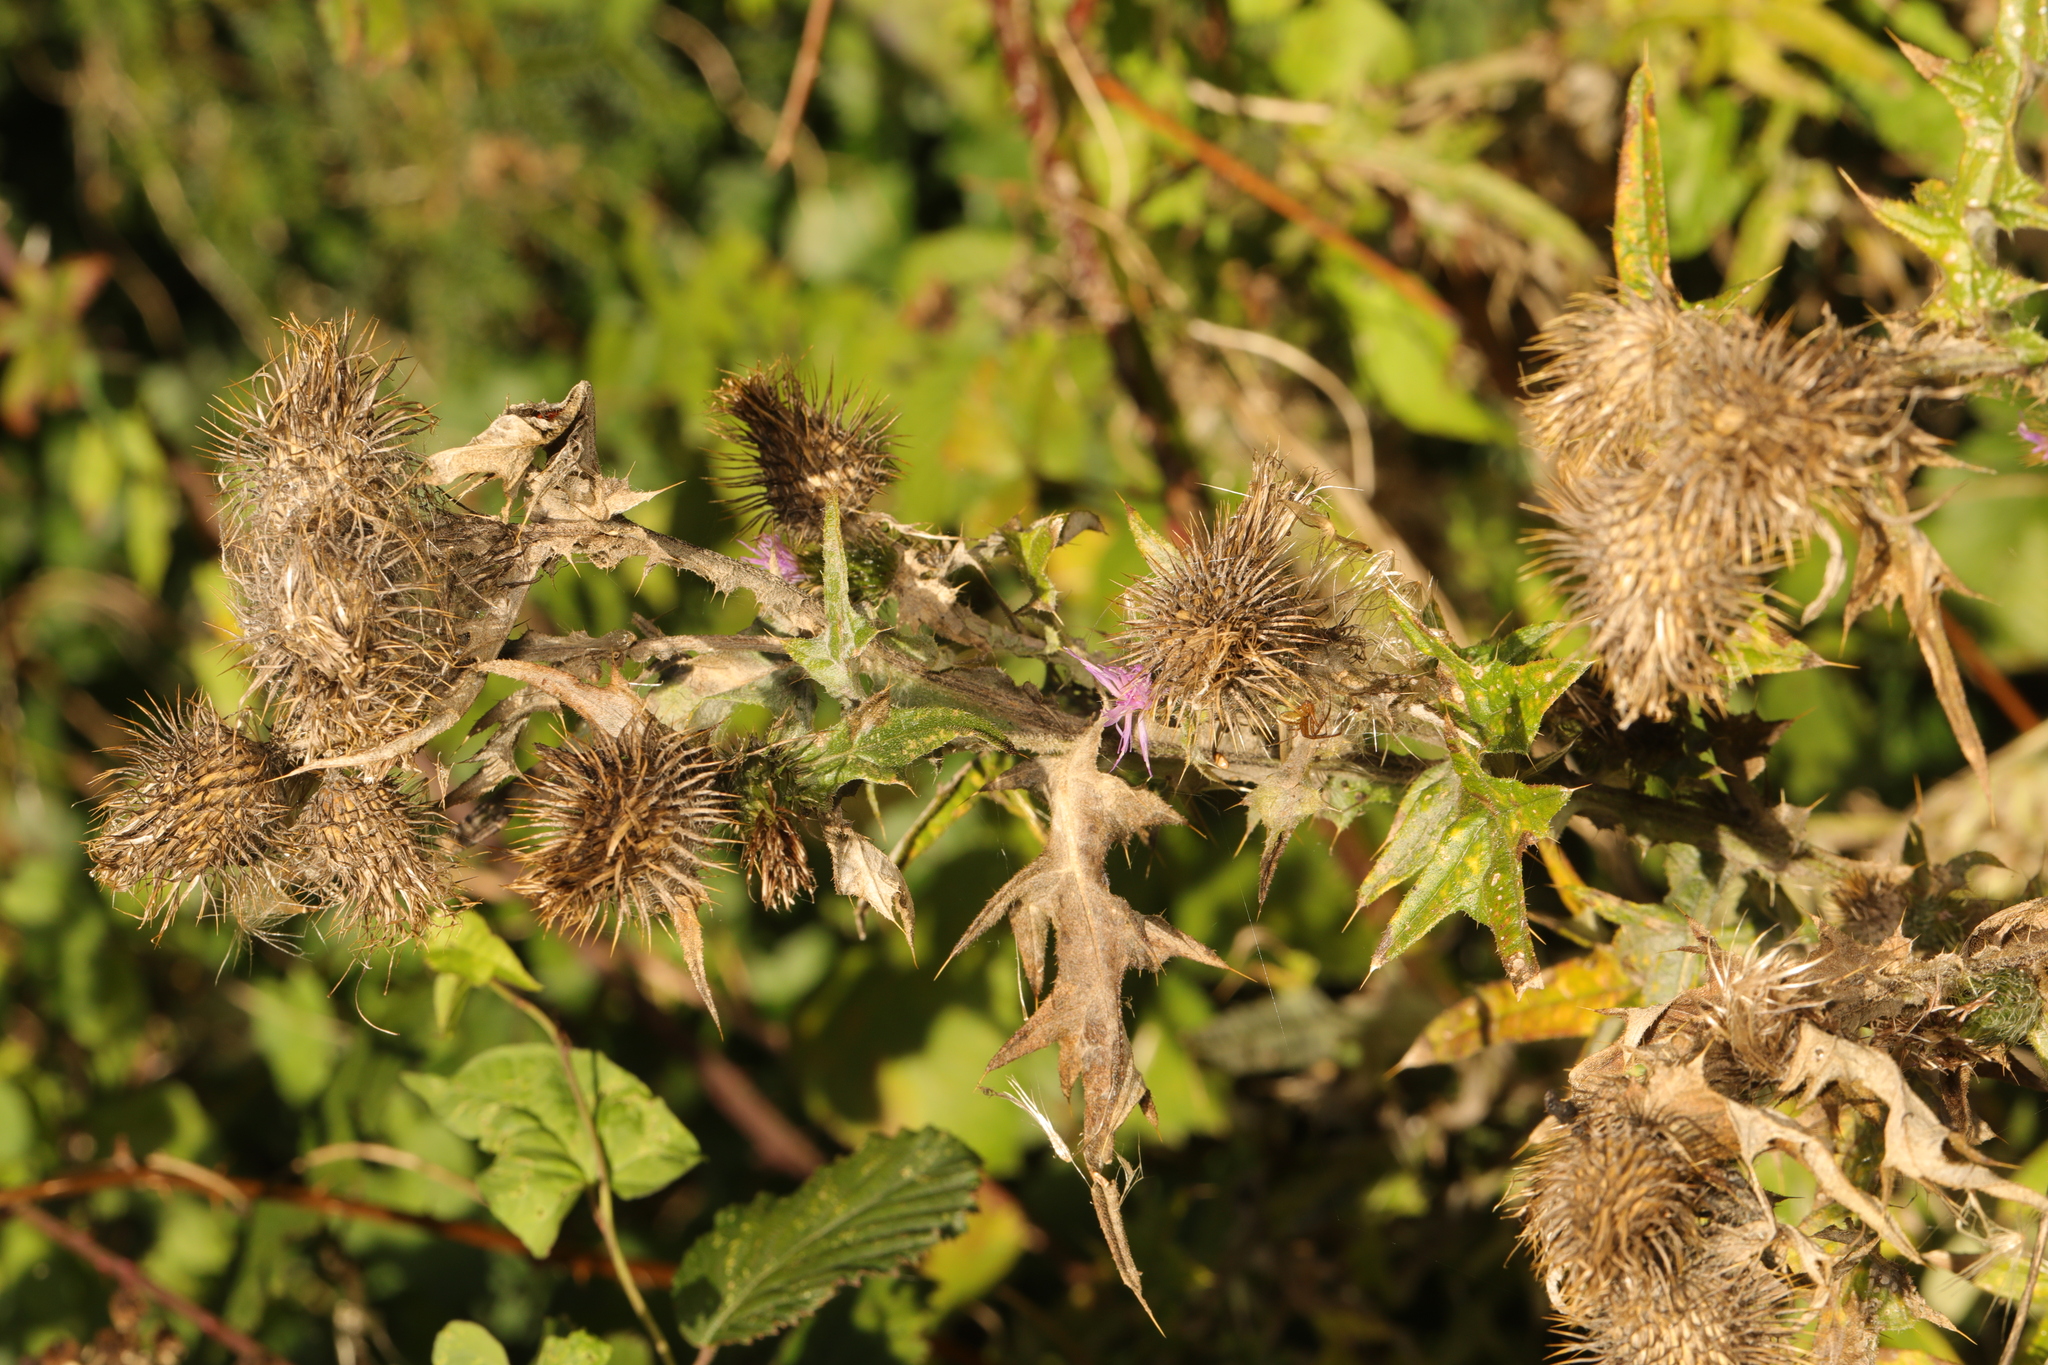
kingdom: Plantae
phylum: Tracheophyta
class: Magnoliopsida
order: Asterales
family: Asteraceae
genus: Cirsium
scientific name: Cirsium vulgare
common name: Bull thistle
